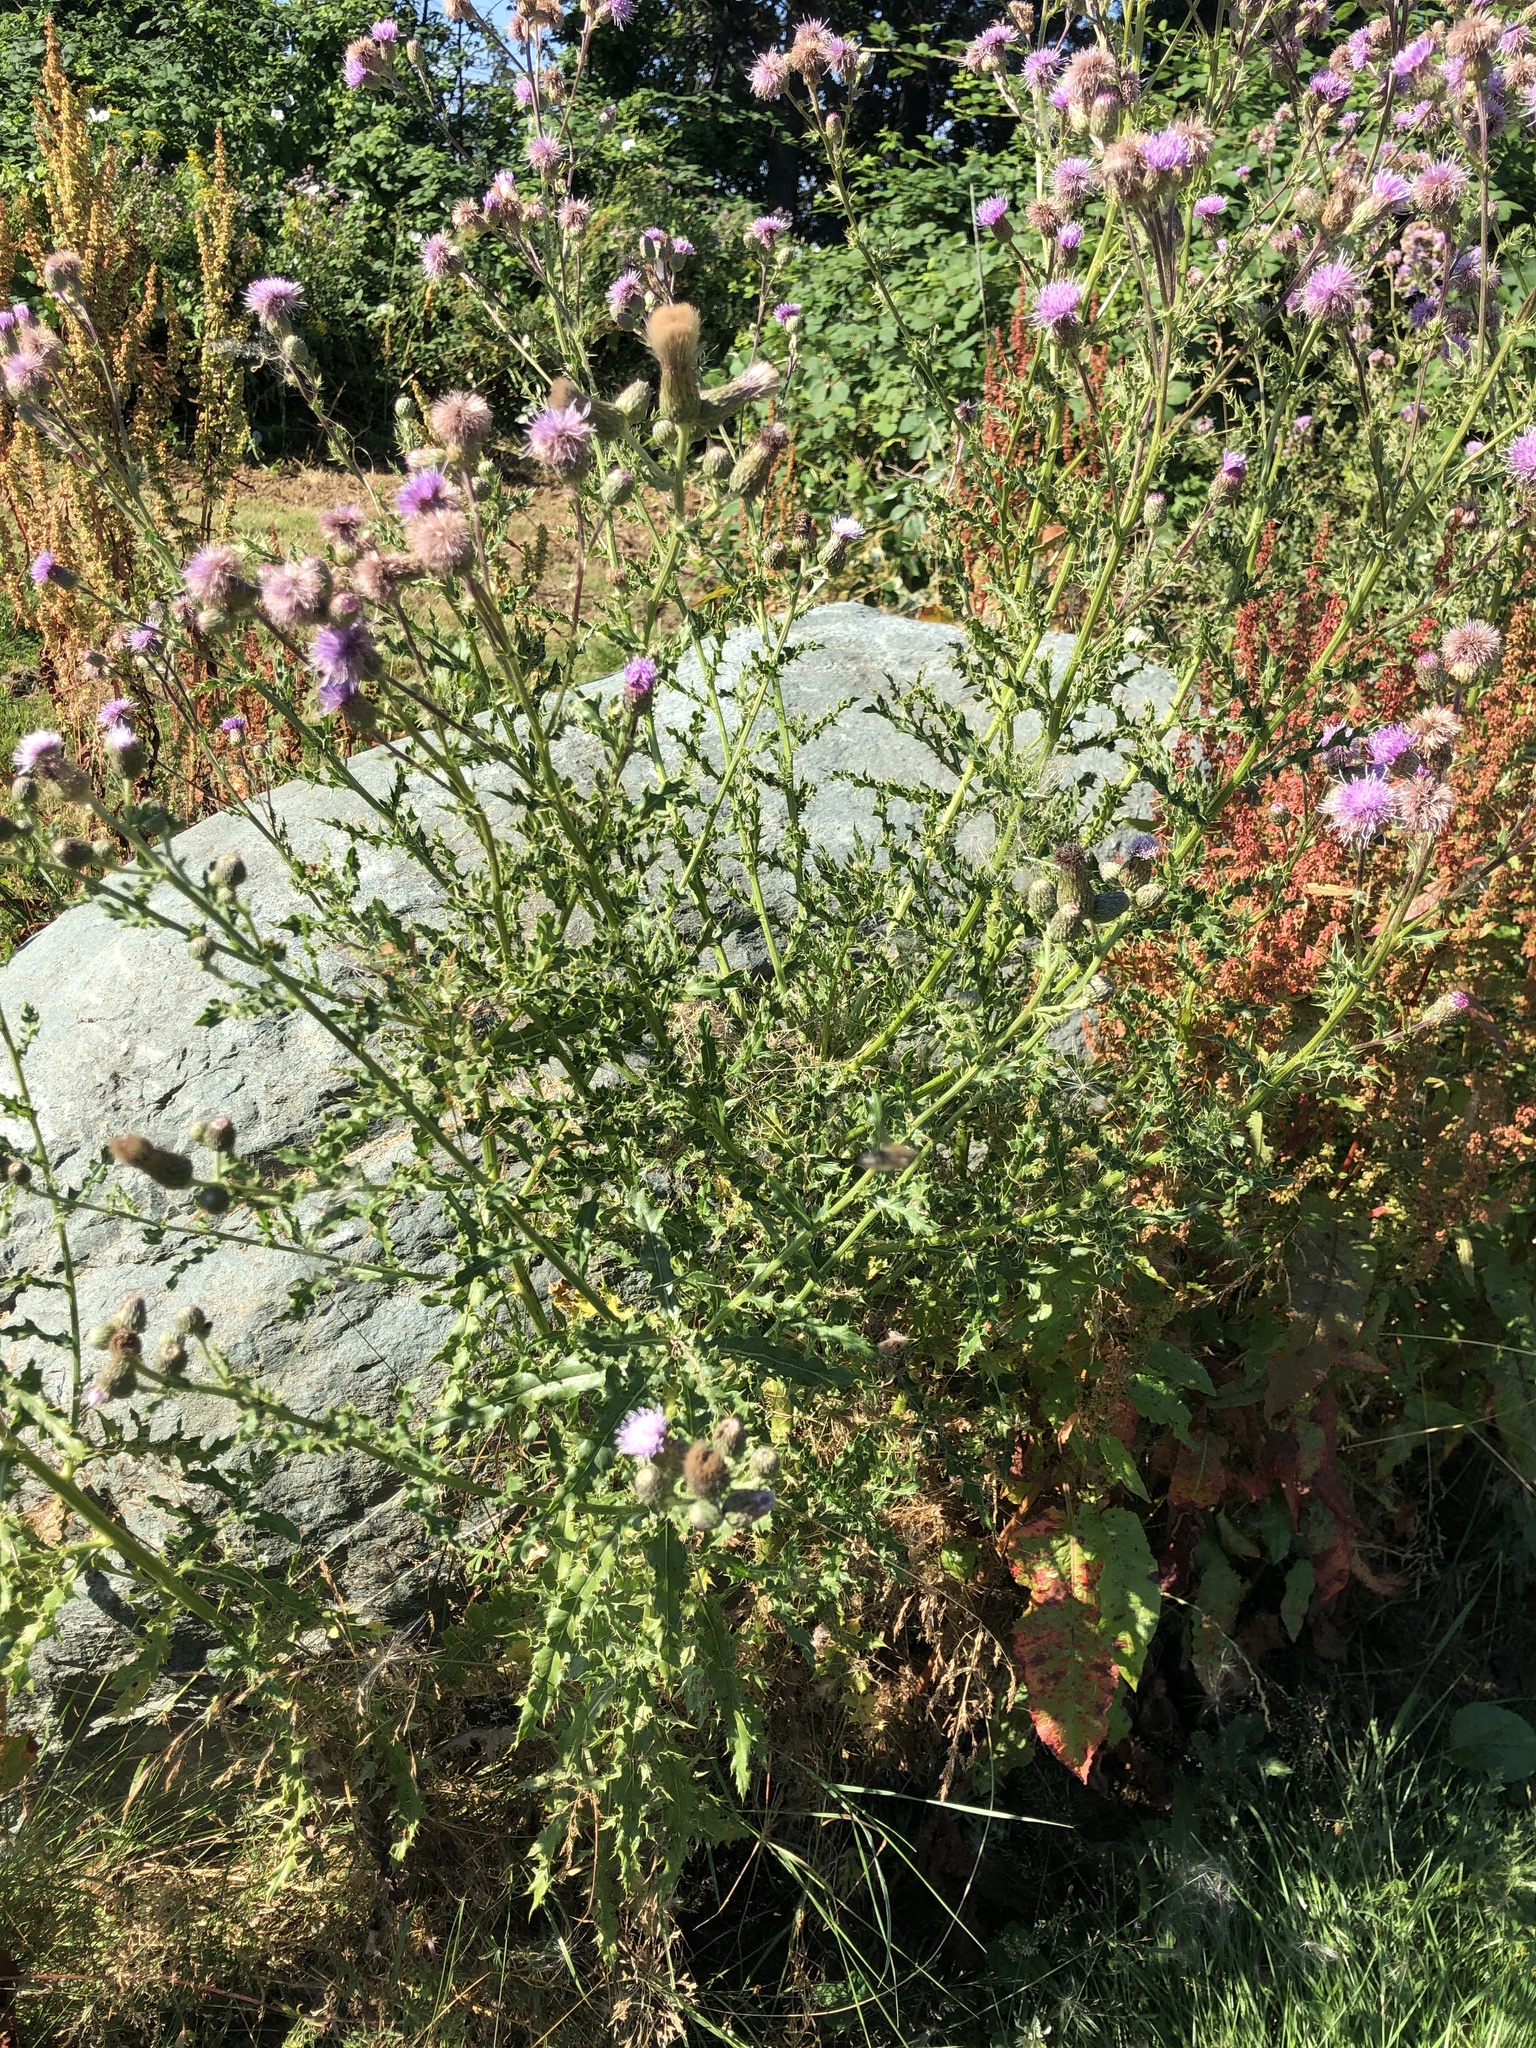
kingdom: Plantae
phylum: Tracheophyta
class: Magnoliopsida
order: Asterales
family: Asteraceae
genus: Cirsium
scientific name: Cirsium arvense
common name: Creeping thistle
